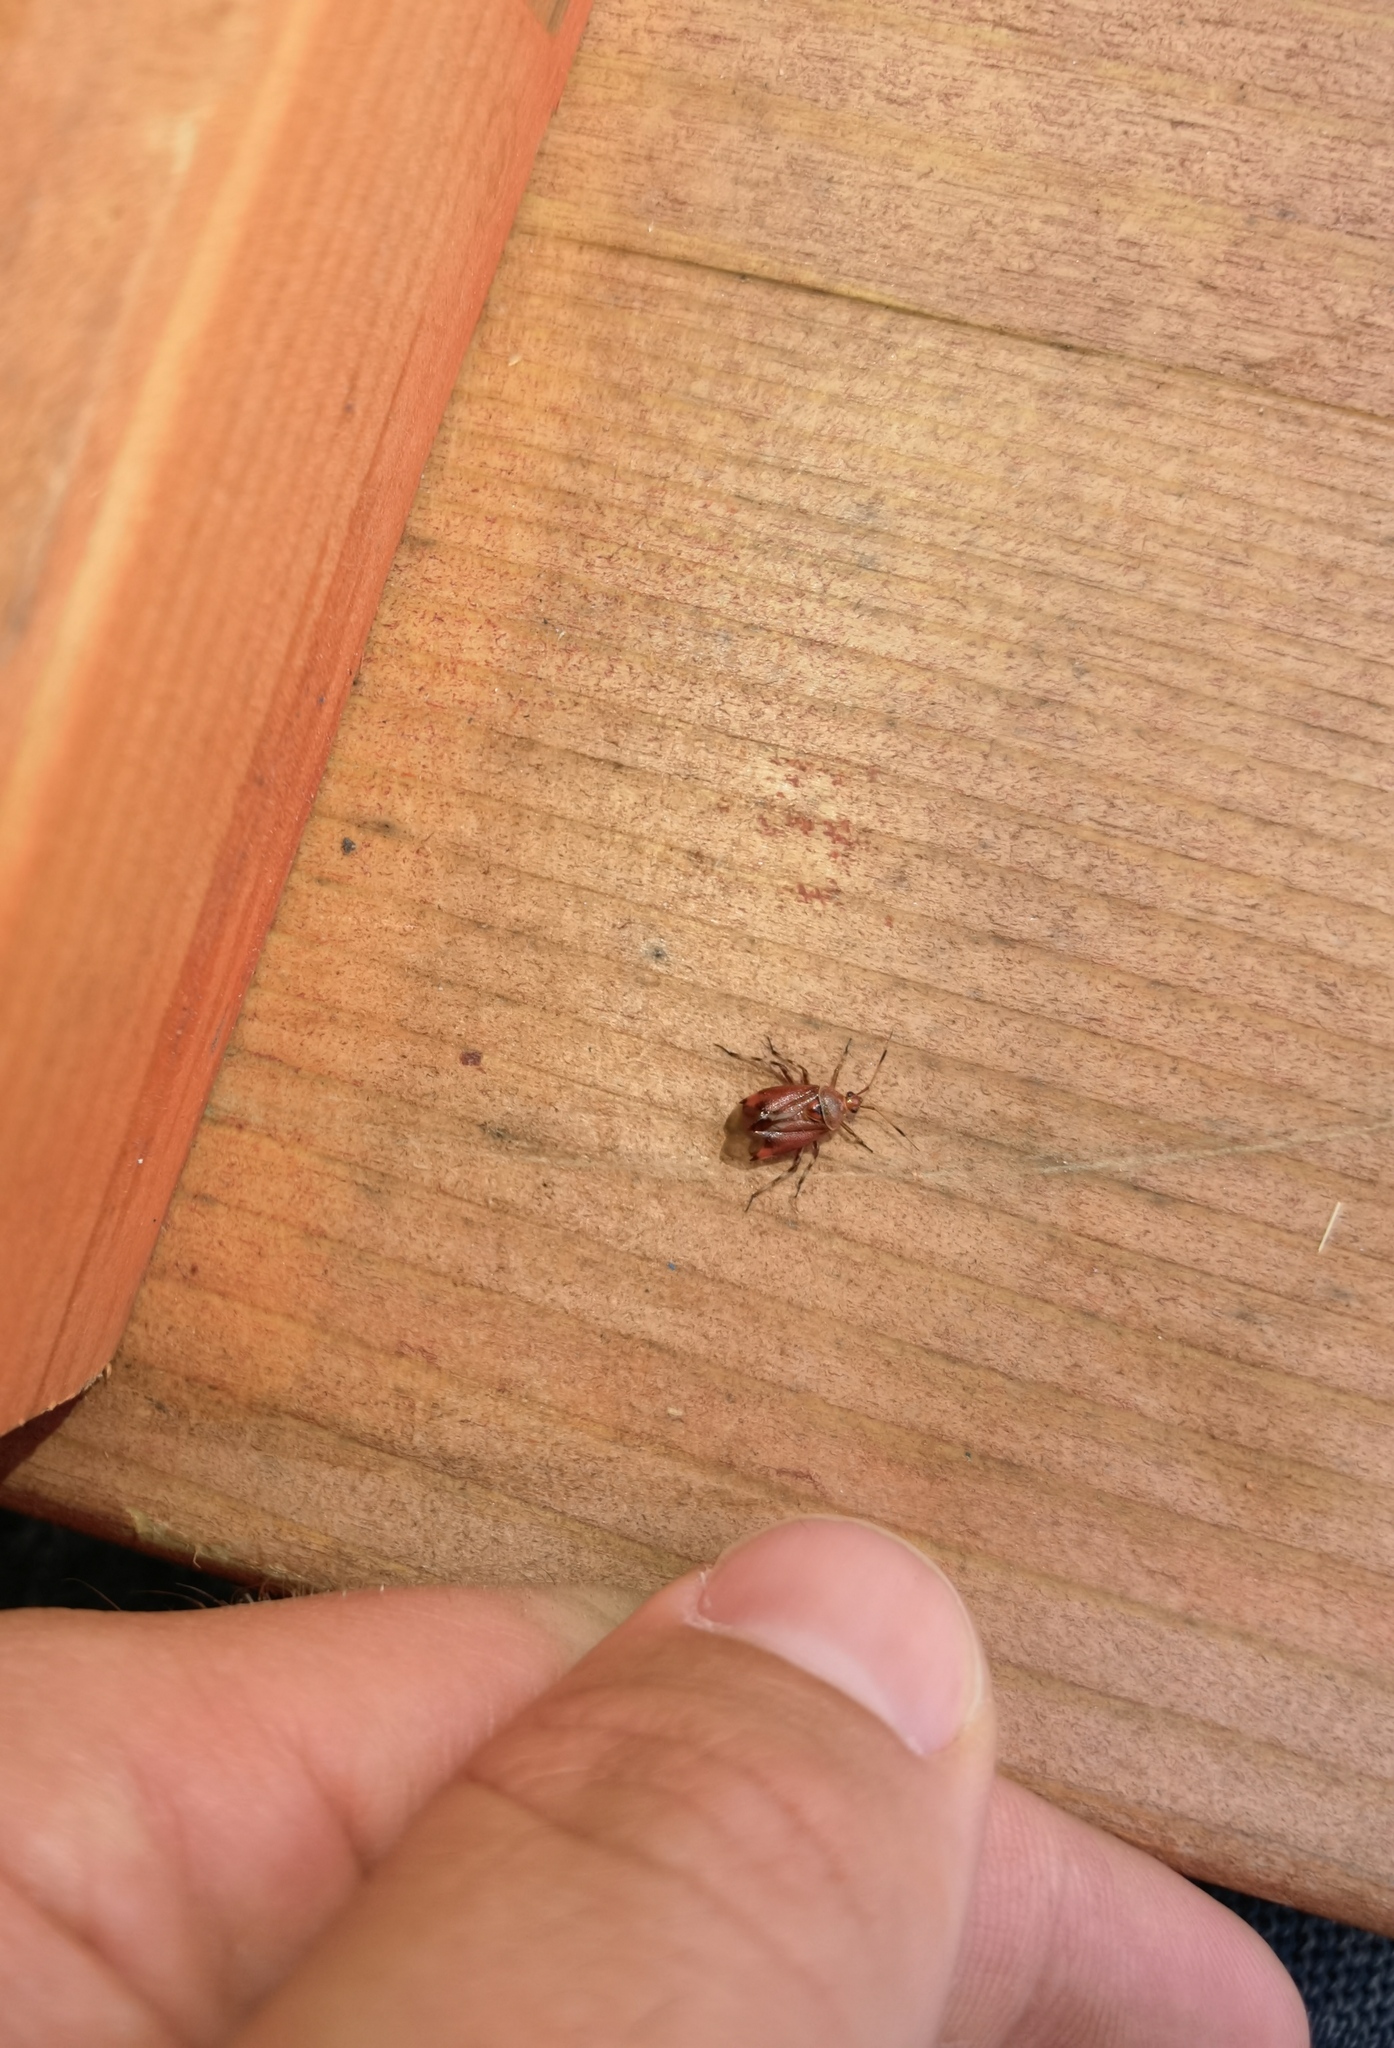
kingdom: Animalia
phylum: Arthropoda
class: Insecta
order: Hemiptera
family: Miridae
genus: Deraeocoris
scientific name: Deraeocoris olivaceus
